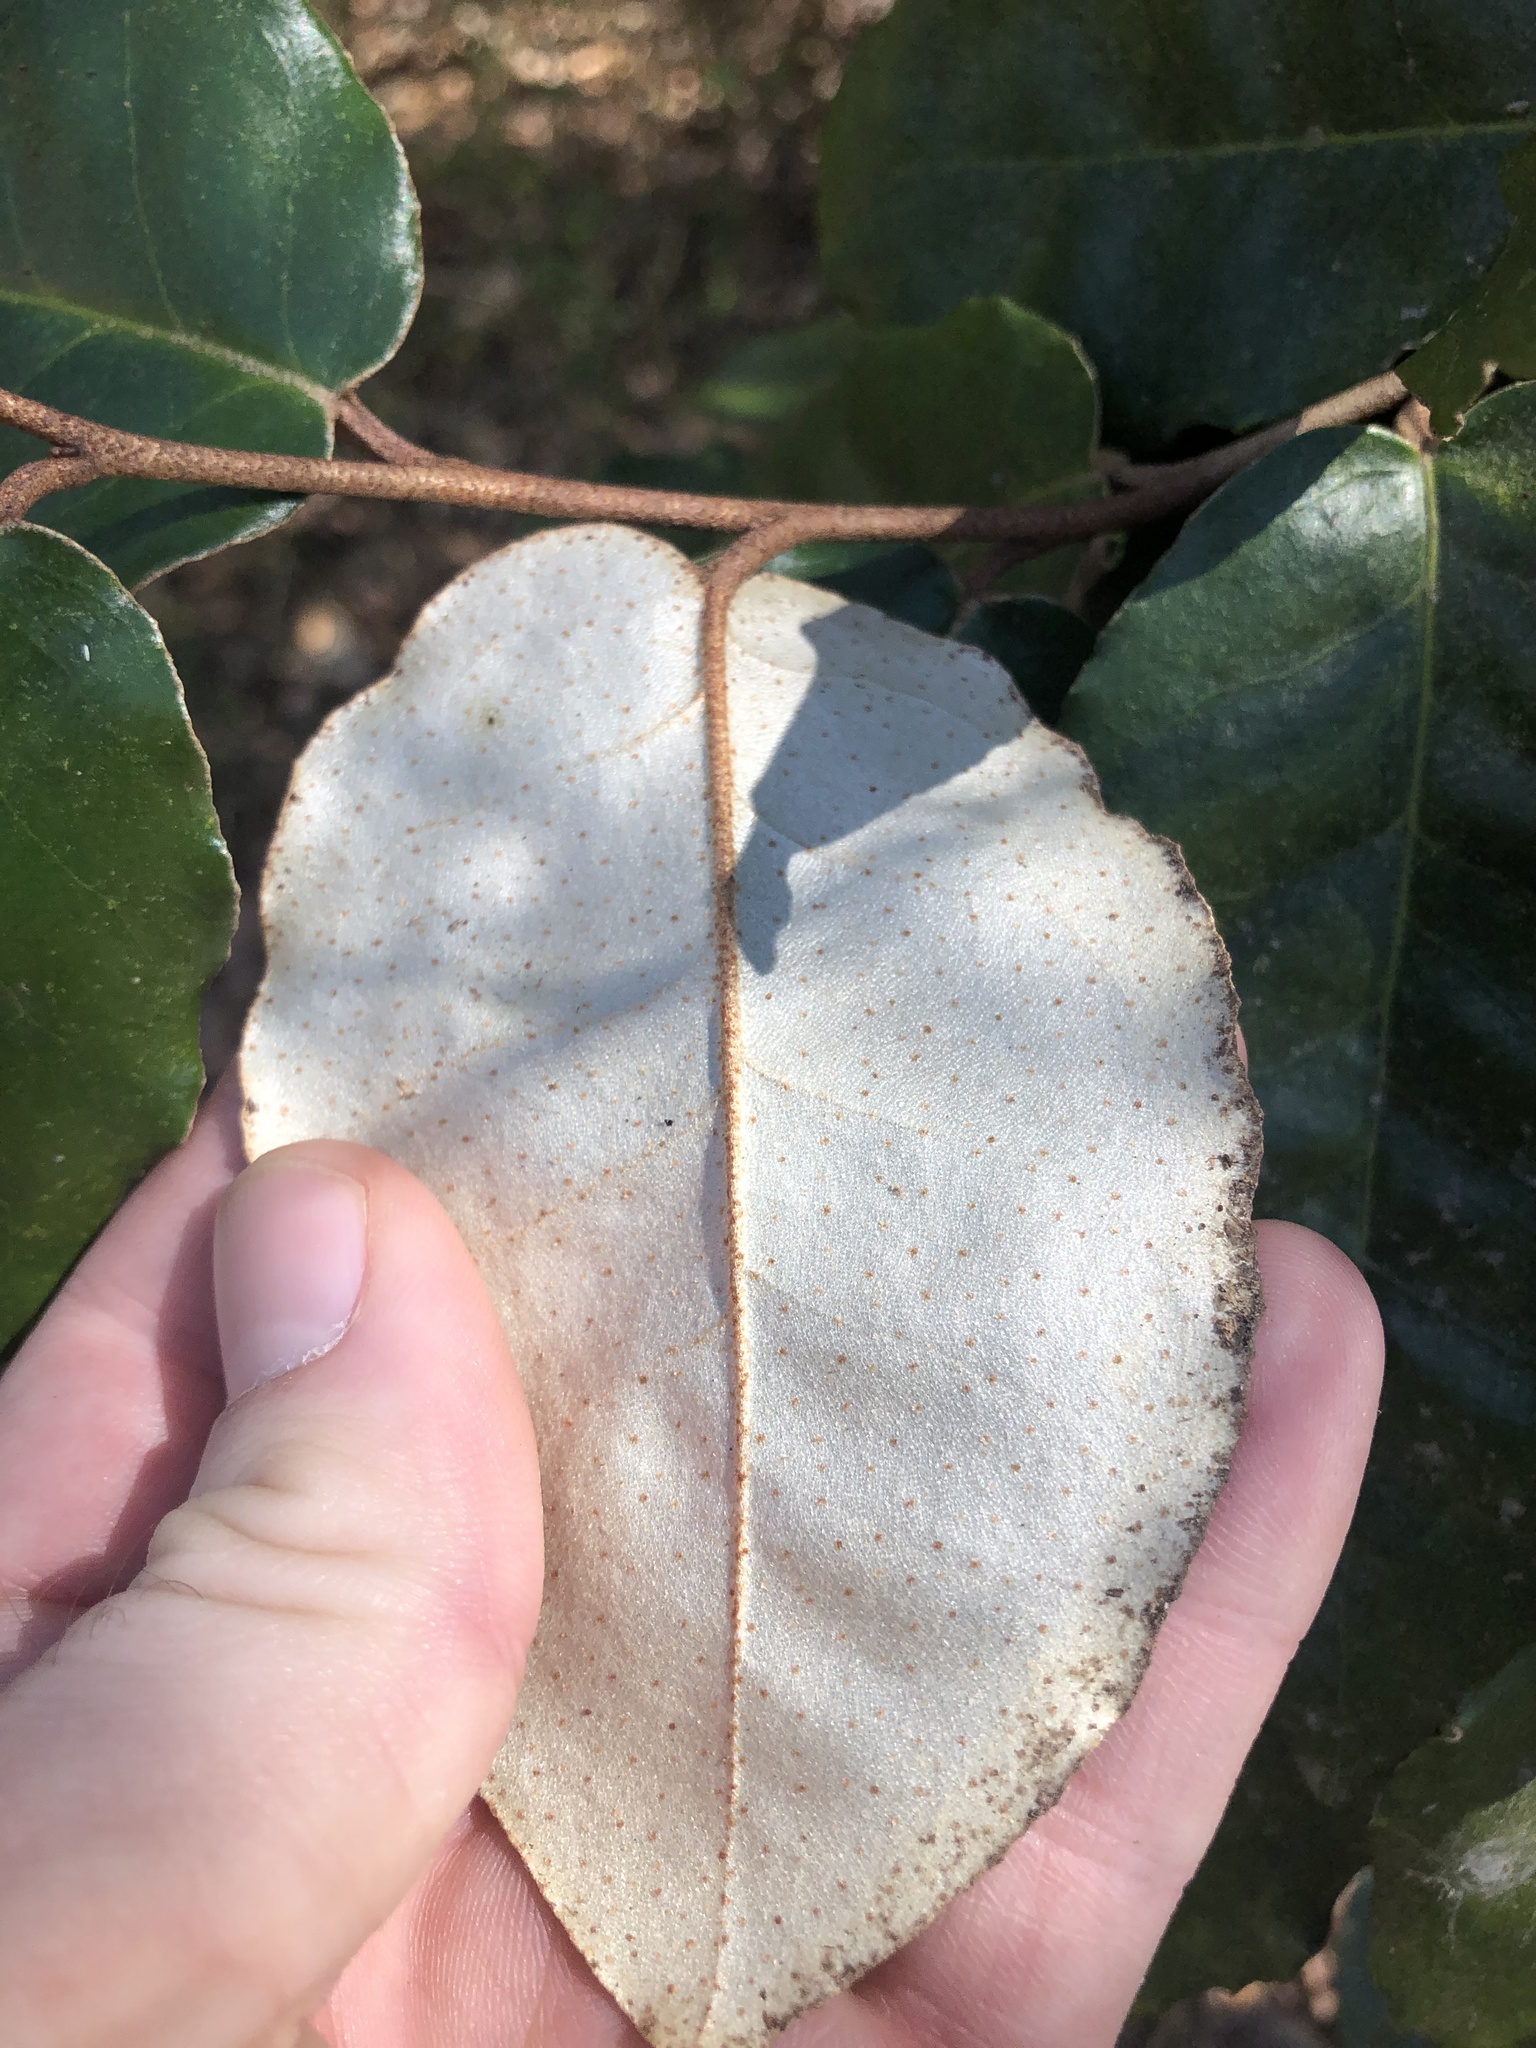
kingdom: Plantae
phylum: Tracheophyta
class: Magnoliopsida
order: Rosales
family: Elaeagnaceae
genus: Elaeagnus
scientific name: Elaeagnus pungens
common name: Spiny oleaster
